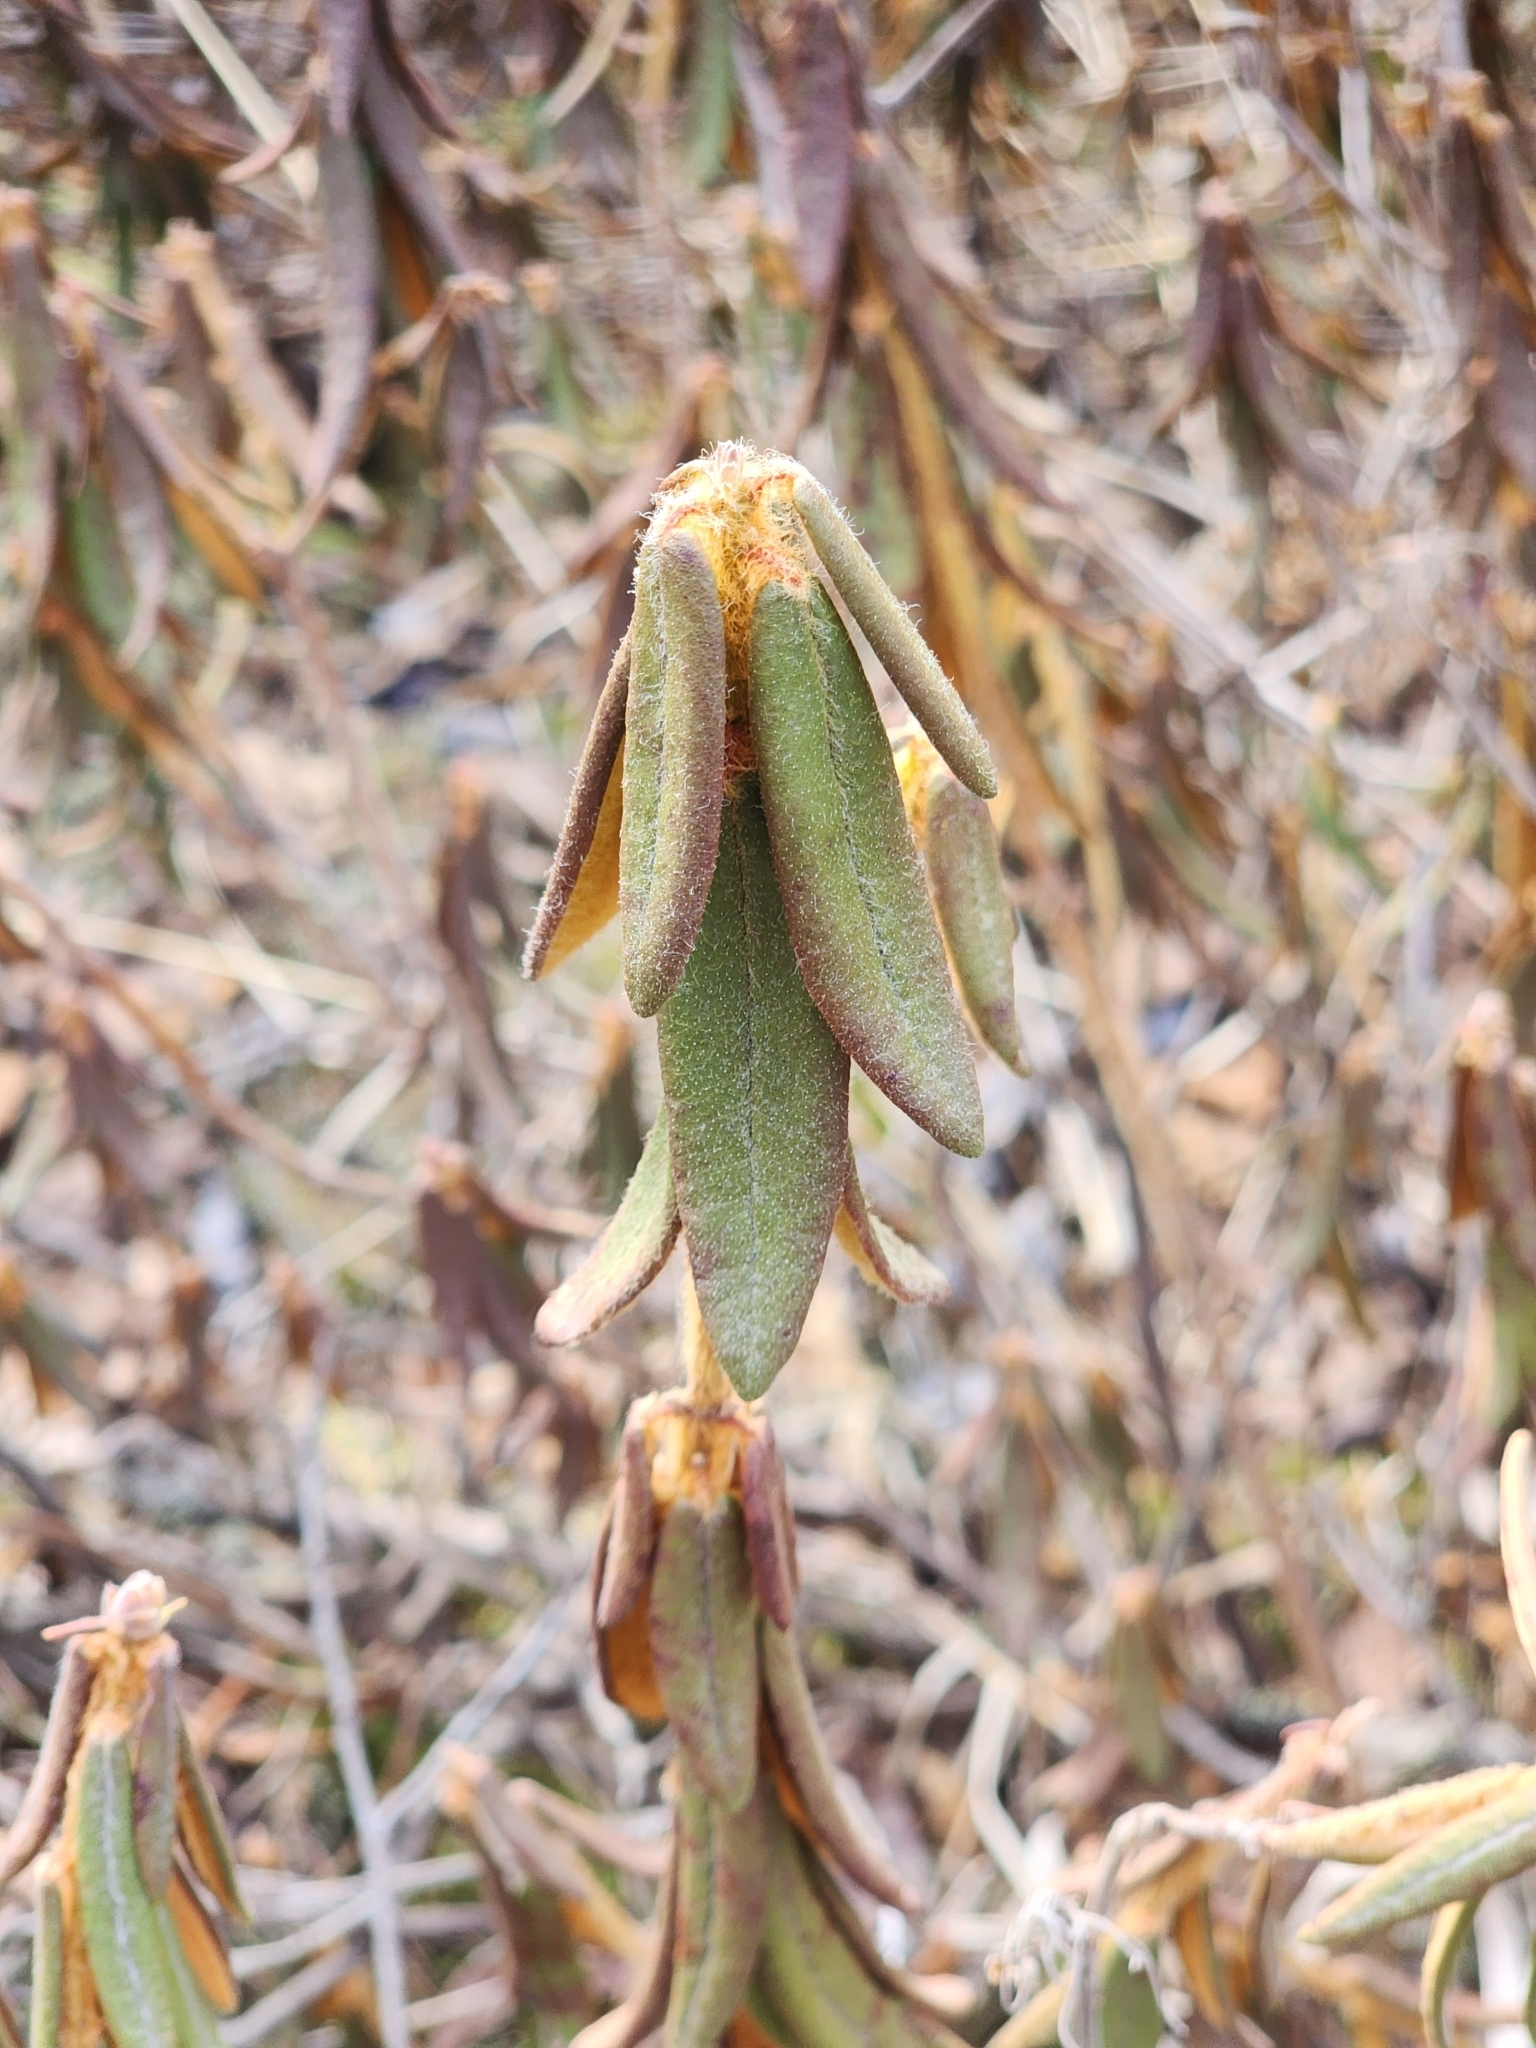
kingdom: Plantae
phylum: Tracheophyta
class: Magnoliopsida
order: Ericales
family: Ericaceae
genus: Rhododendron
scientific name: Rhododendron groenlandicum
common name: Bog labrador tea
